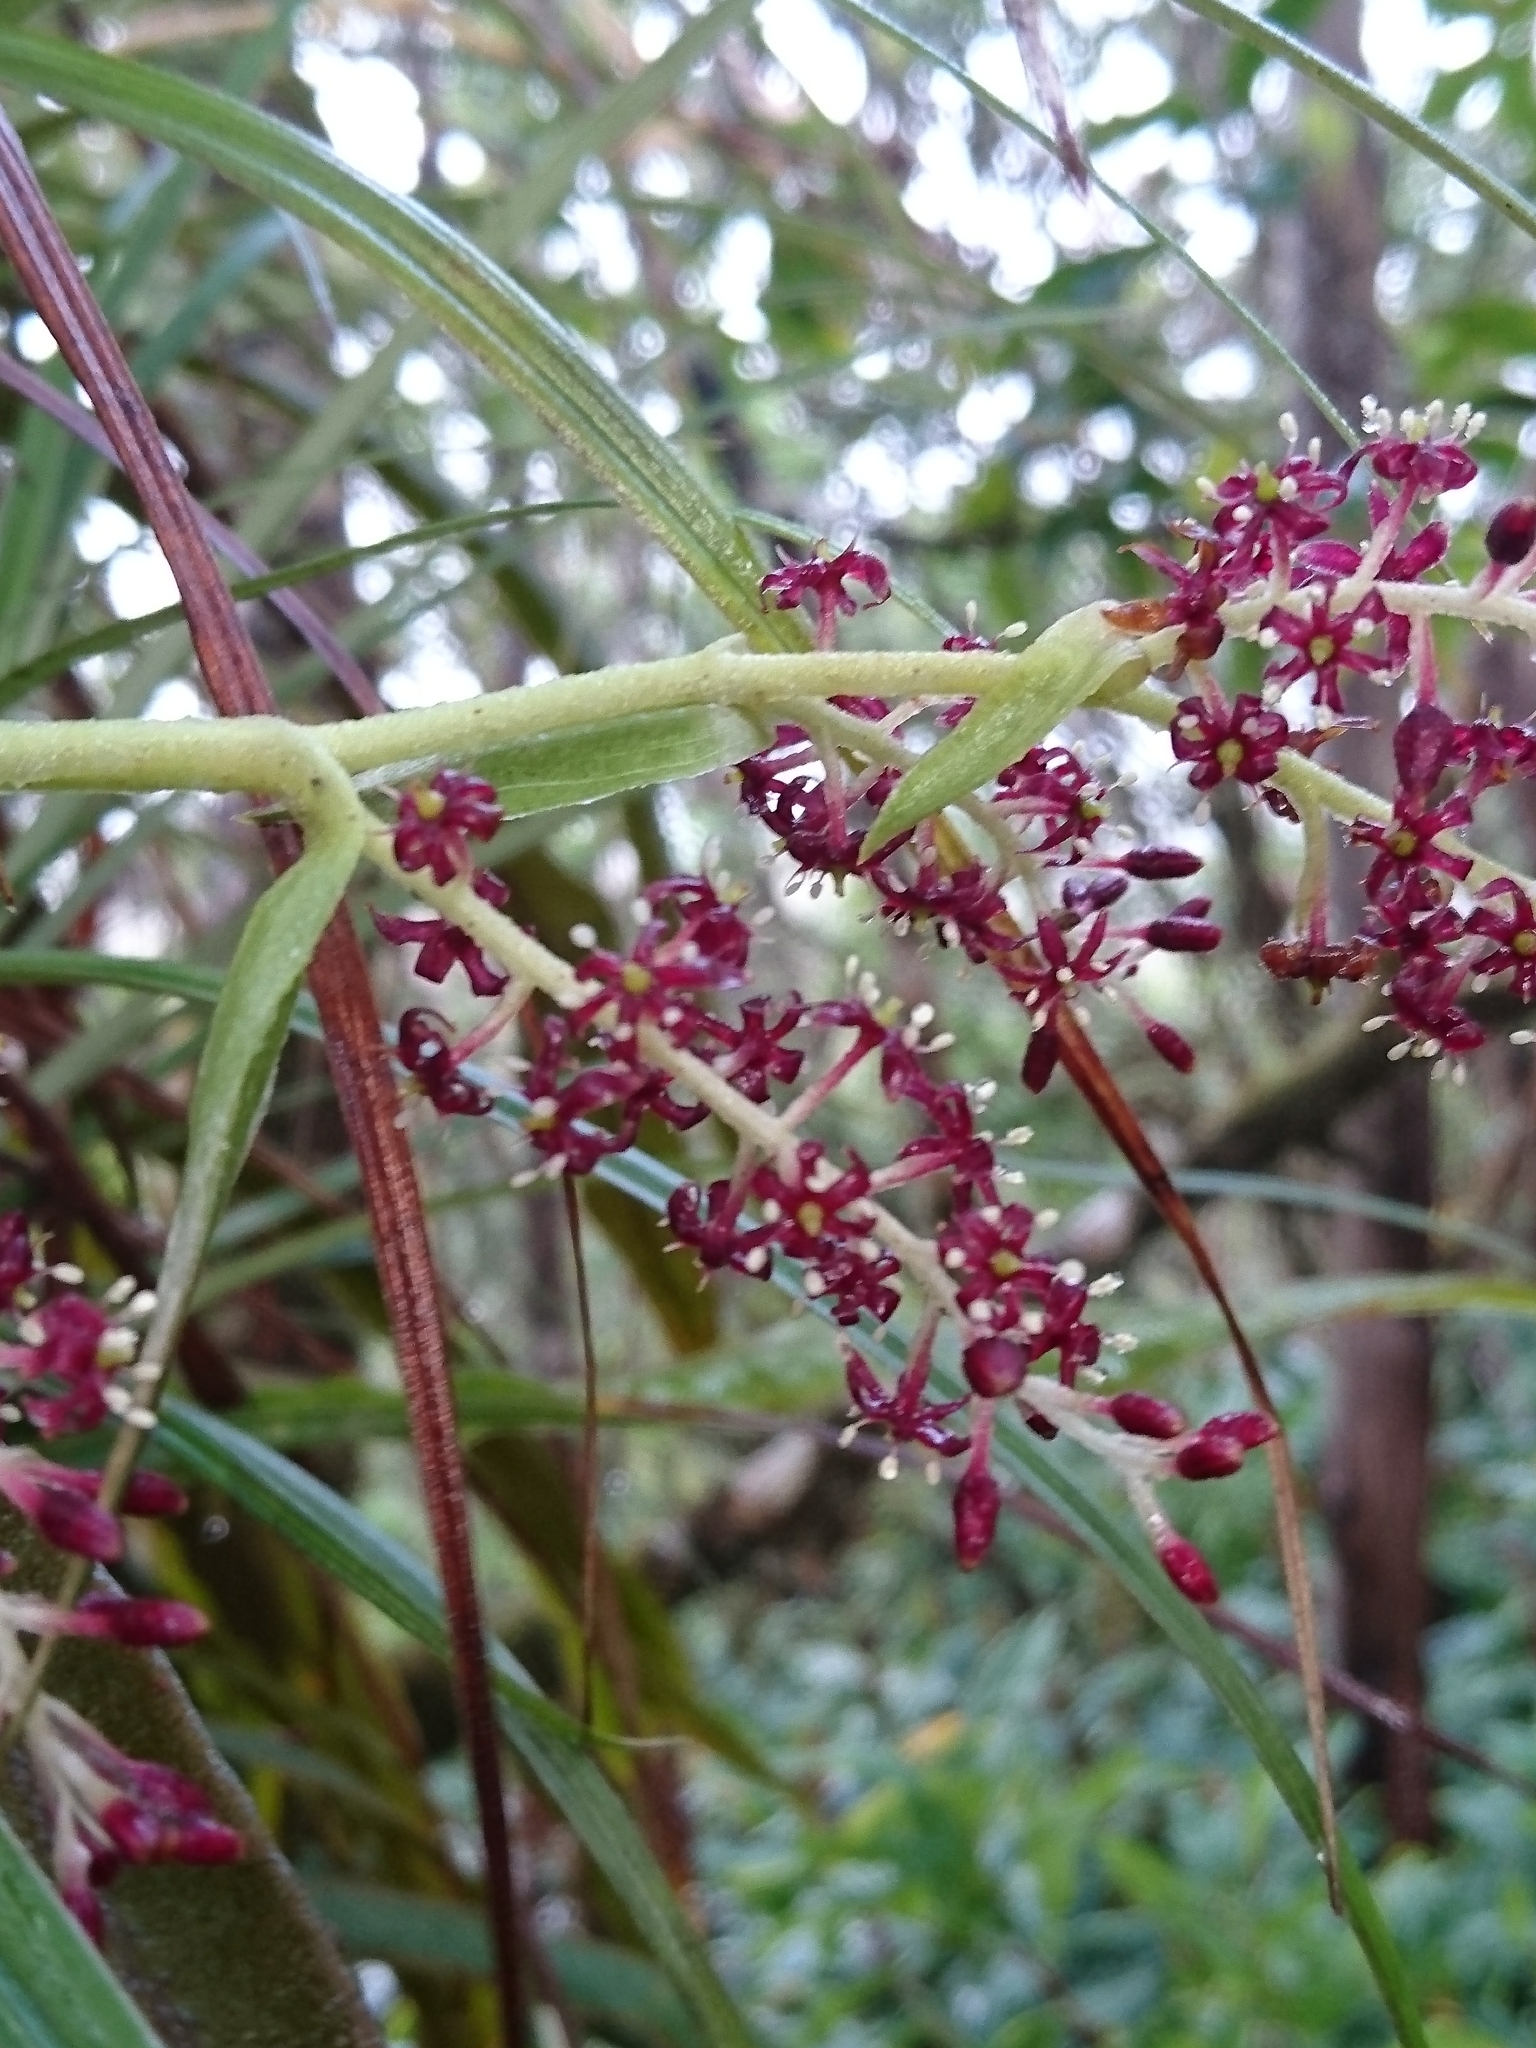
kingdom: Plantae
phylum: Tracheophyta
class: Liliopsida
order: Asparagales
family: Asteliaceae
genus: Astelia
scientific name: Astelia argyrocoma
